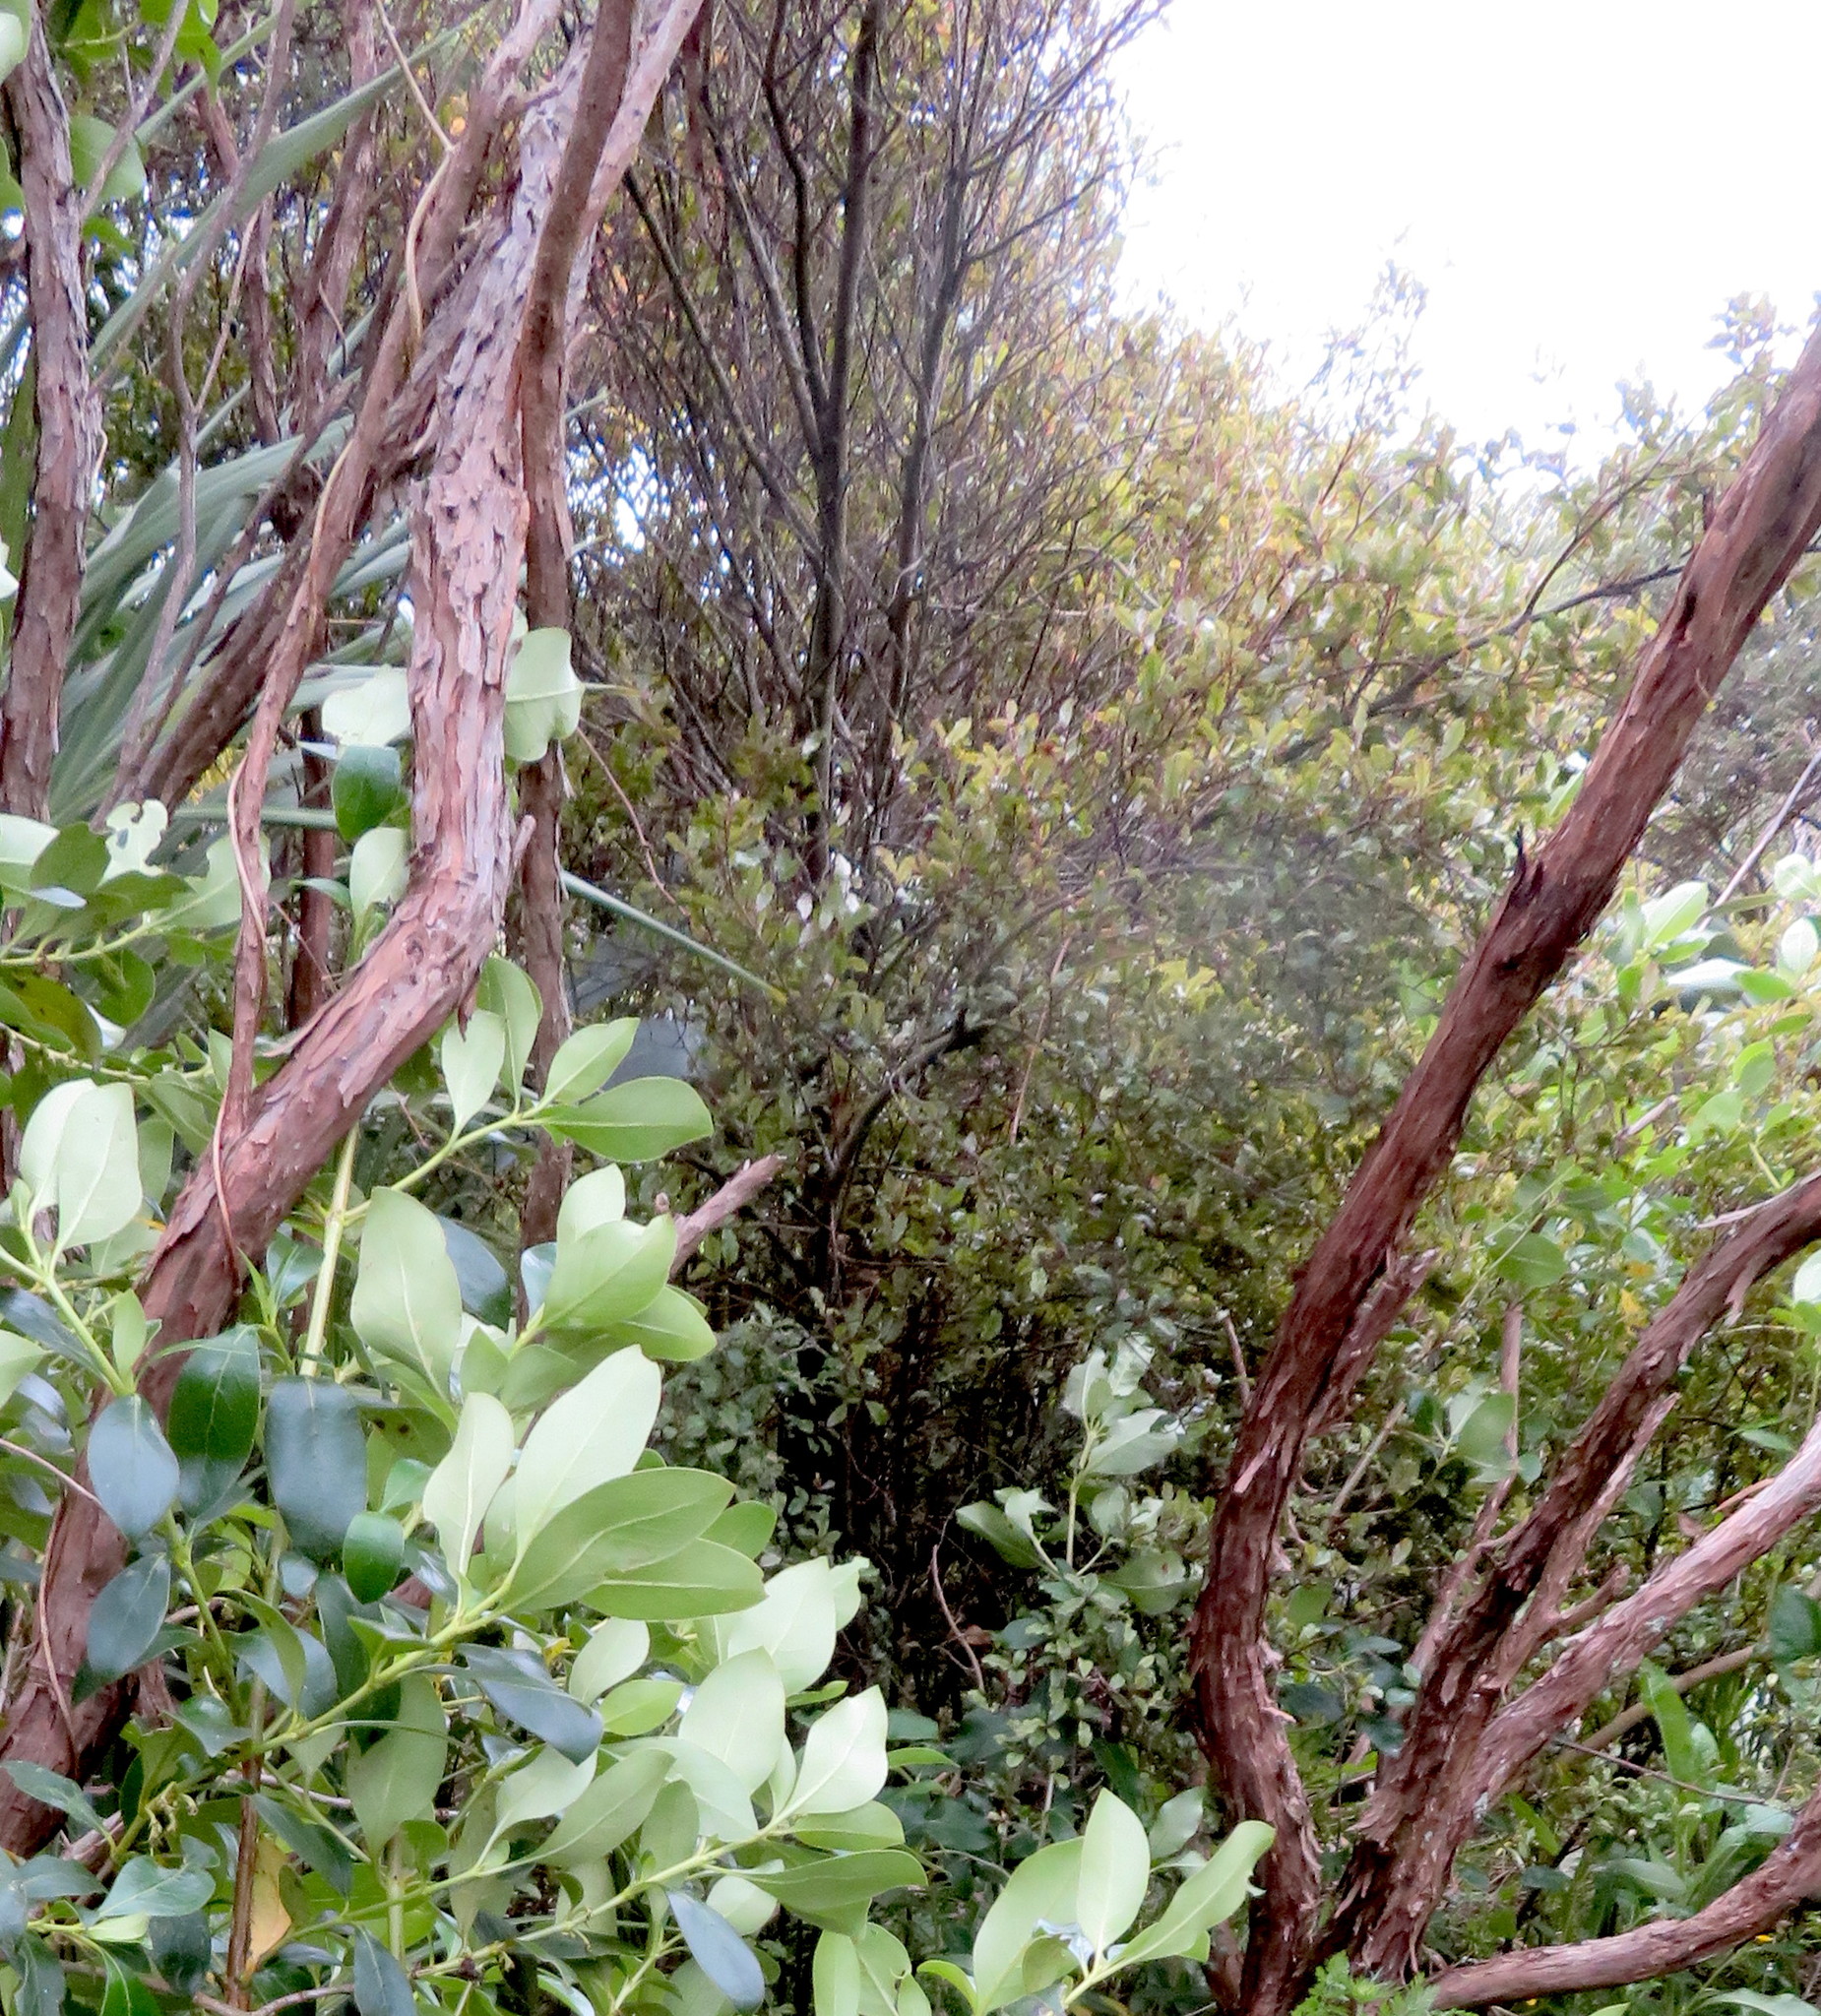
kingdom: Plantae
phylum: Tracheophyta
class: Magnoliopsida
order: Ericales
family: Primulaceae
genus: Myrsine
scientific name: Myrsine australis
